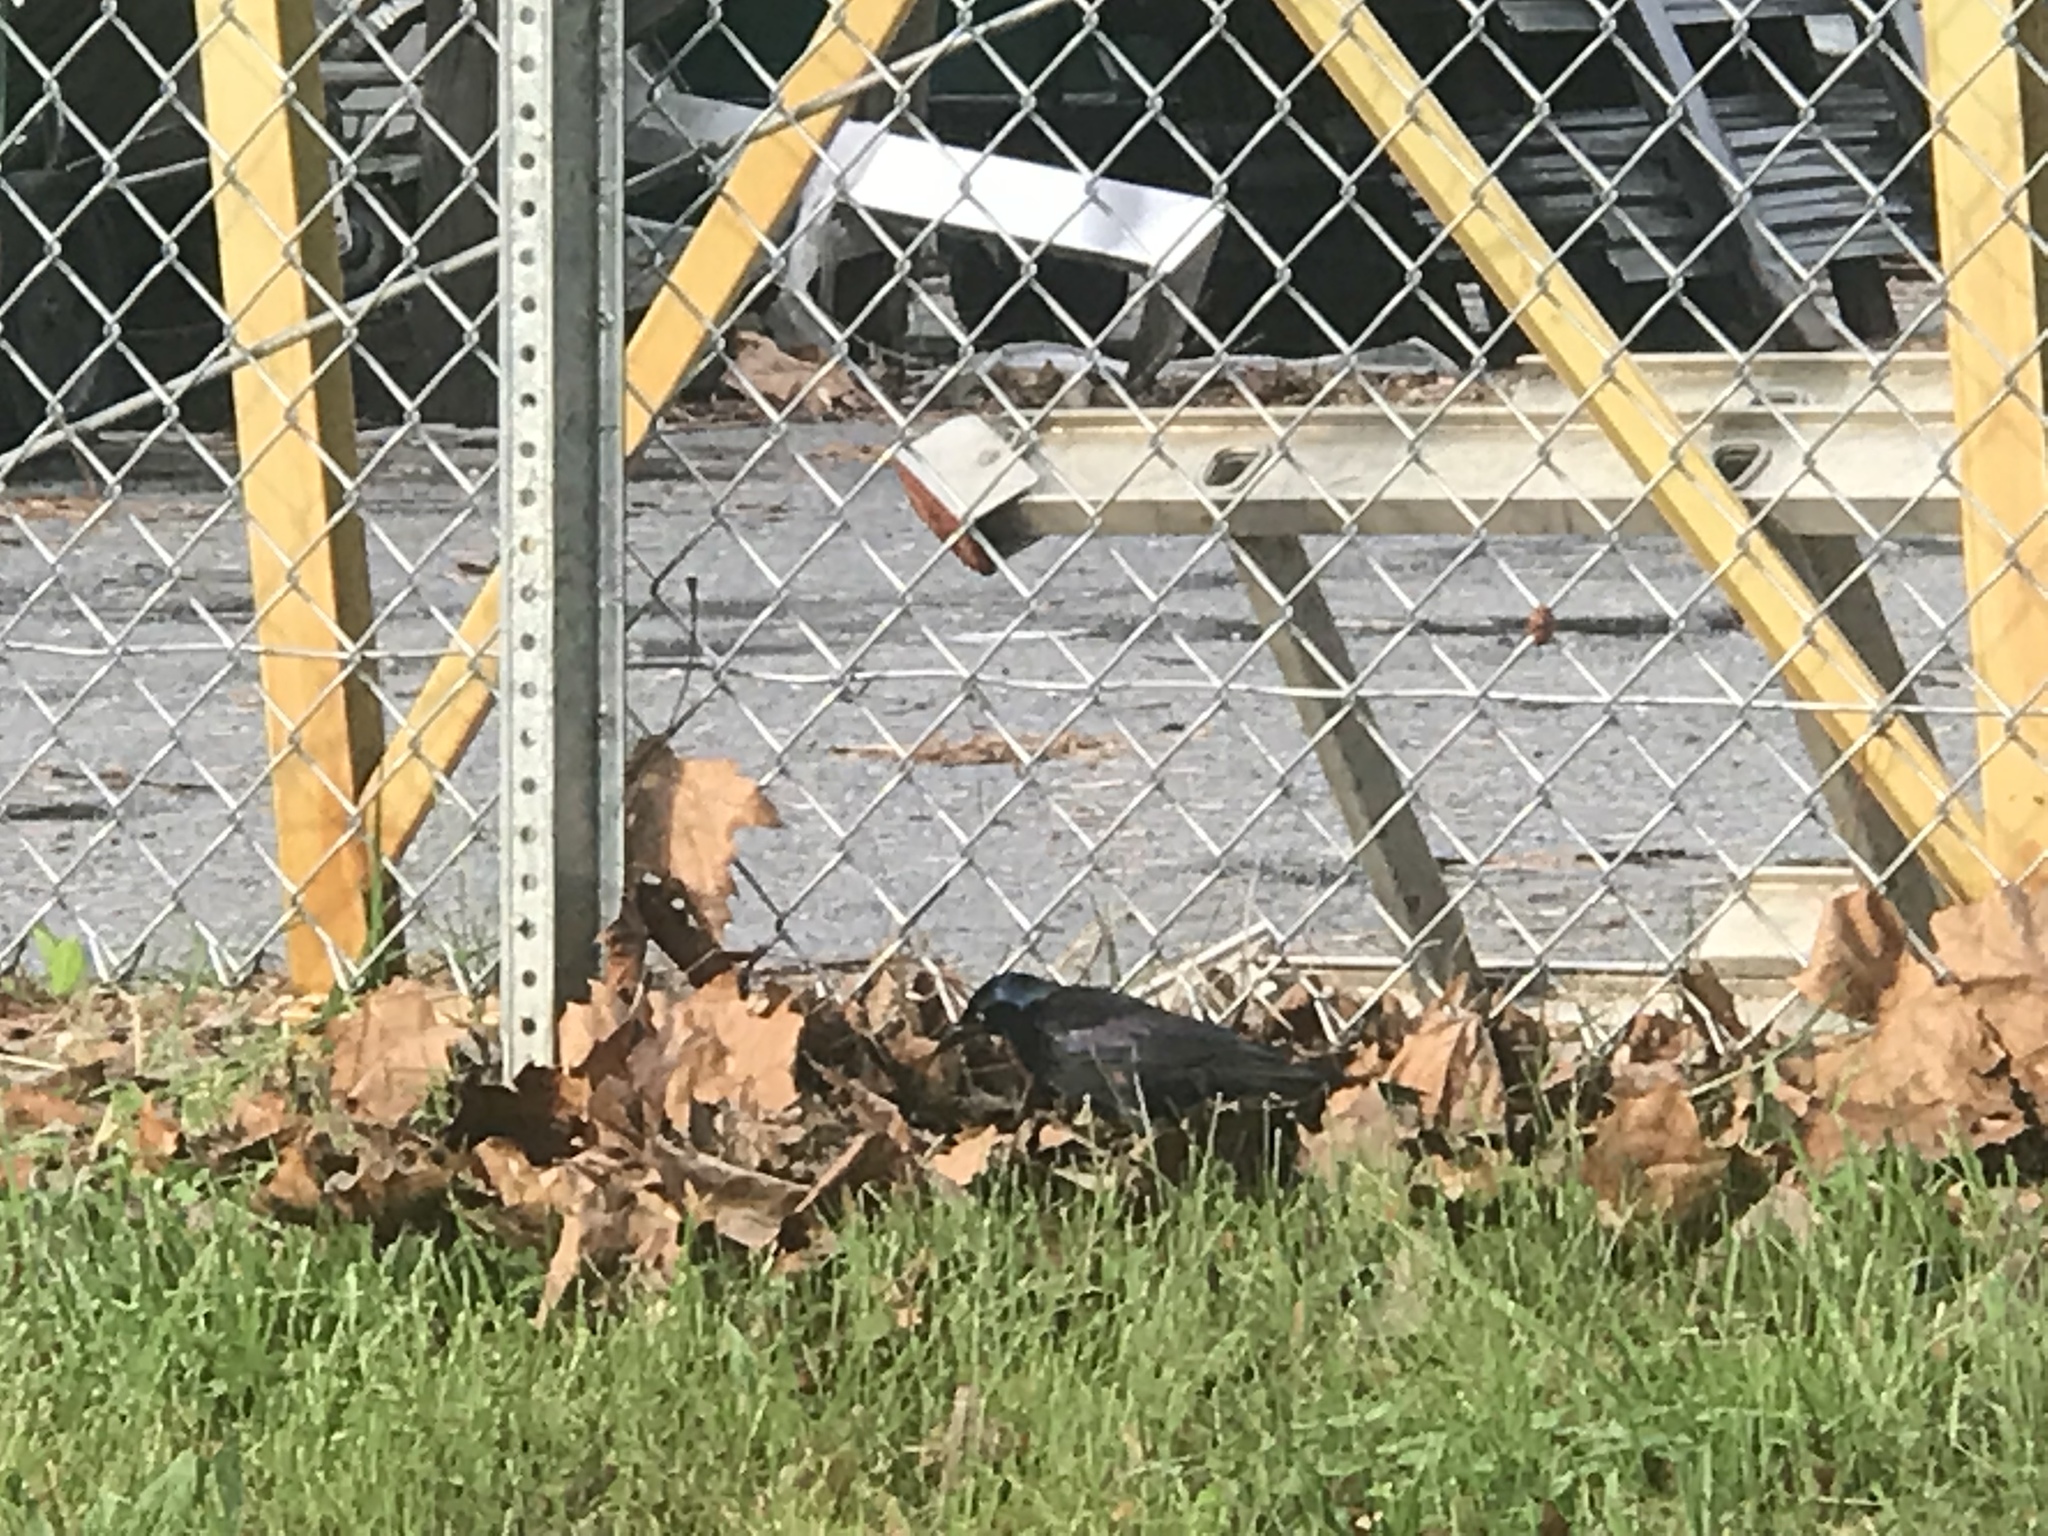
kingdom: Animalia
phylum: Chordata
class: Aves
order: Passeriformes
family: Icteridae
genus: Quiscalus
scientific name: Quiscalus quiscula
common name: Common grackle
